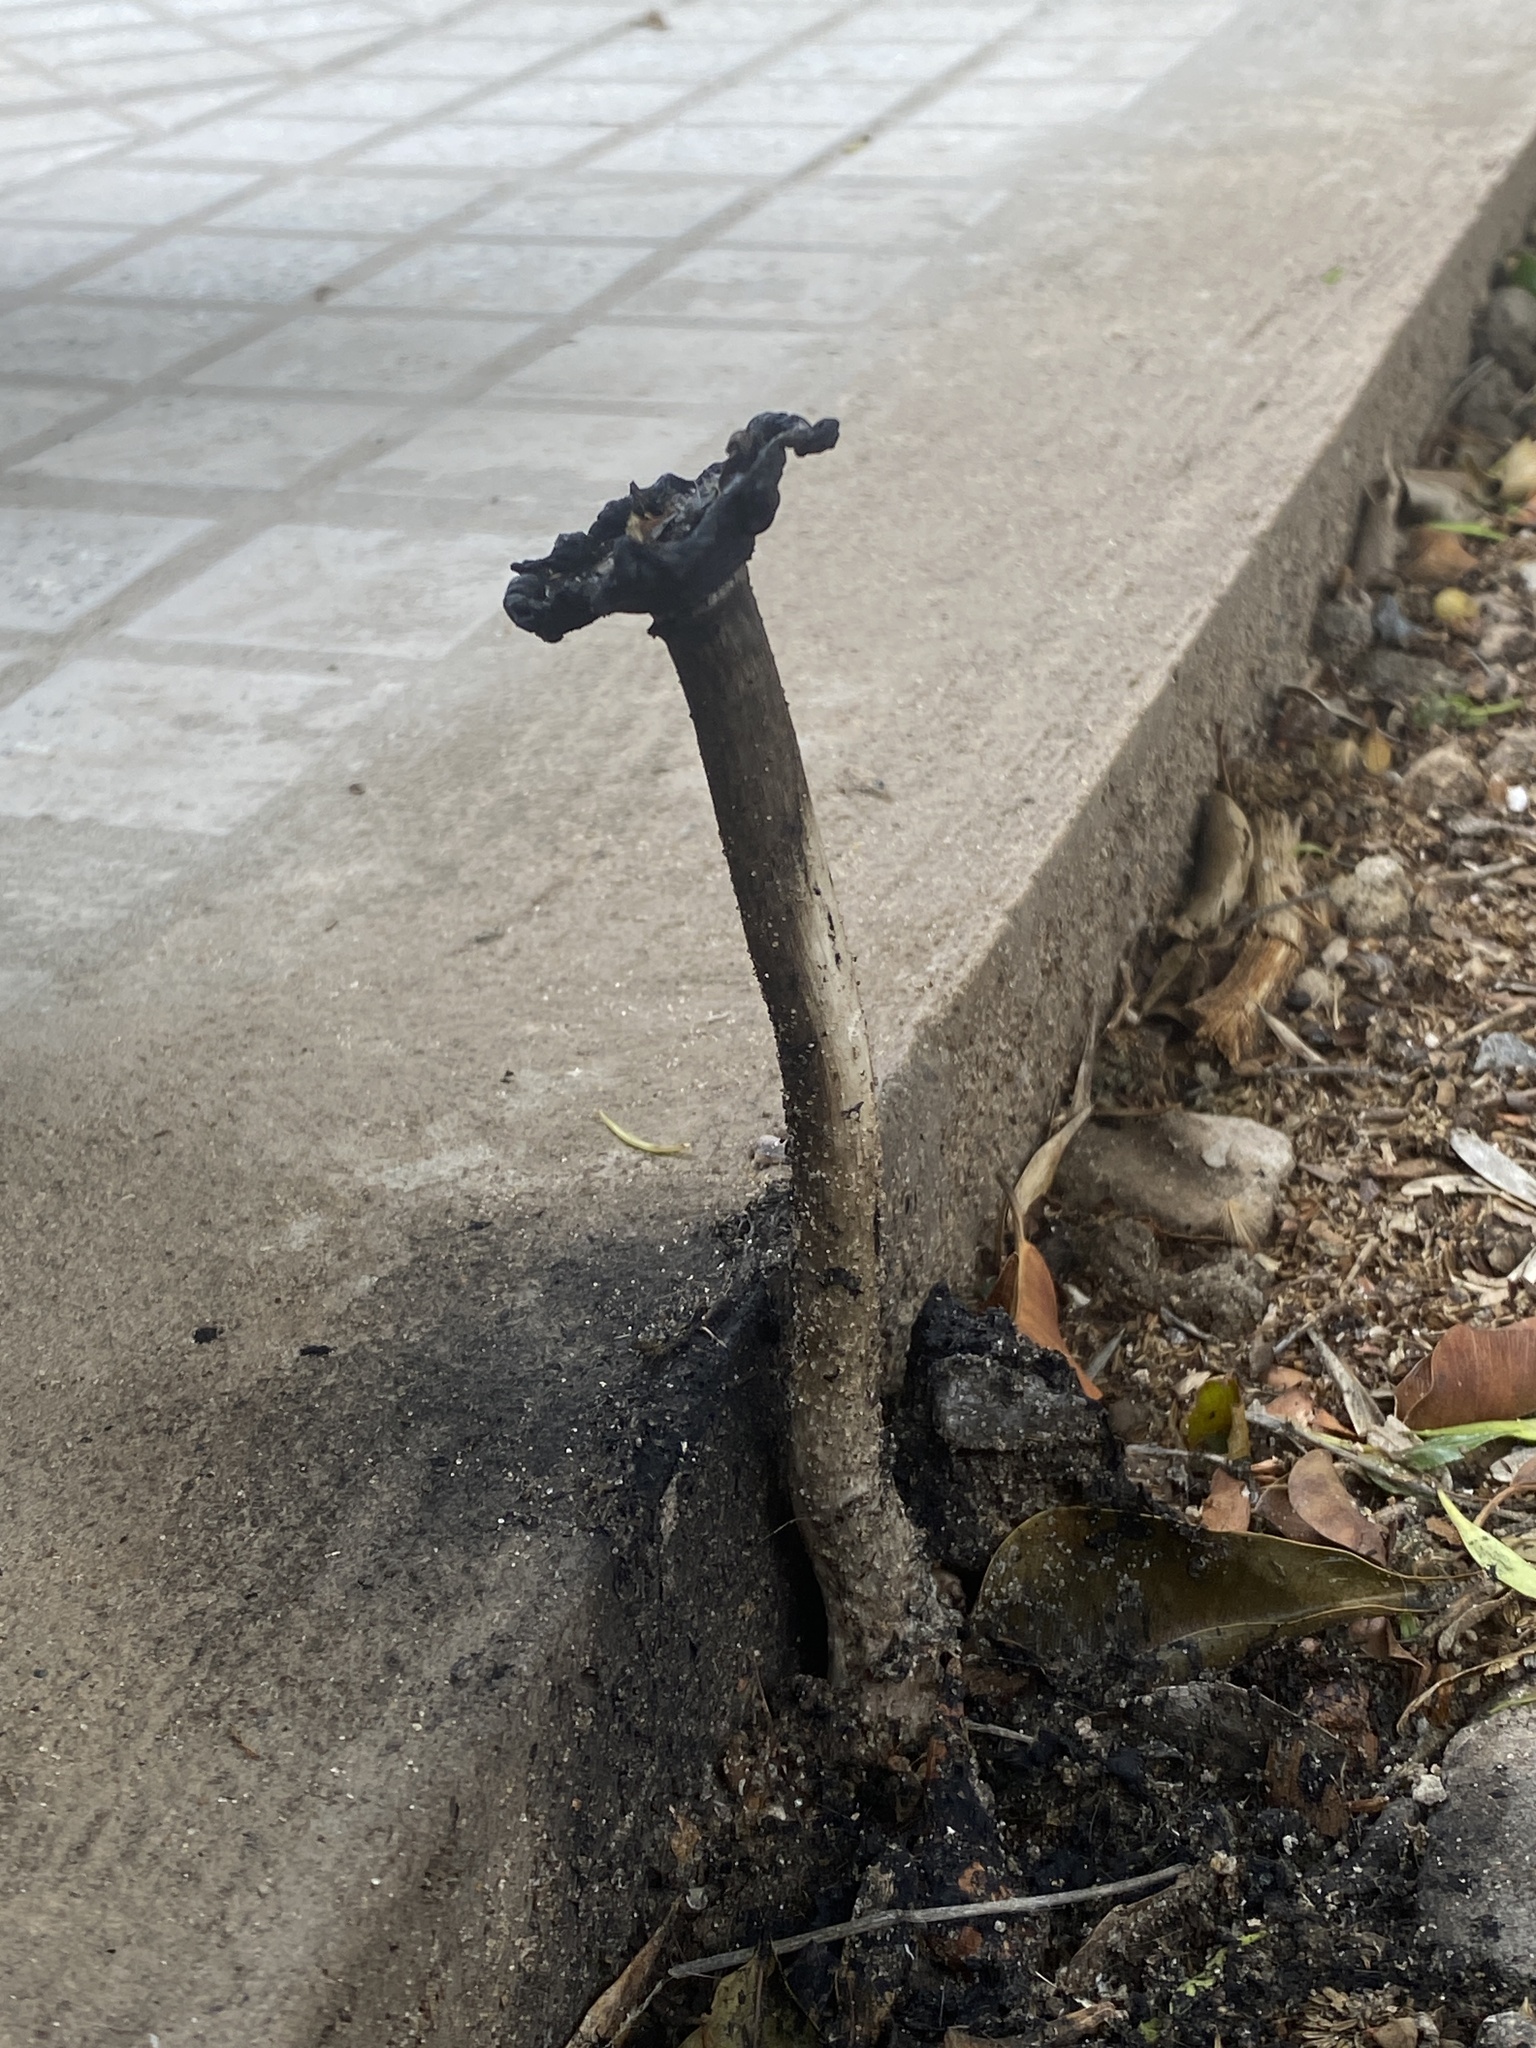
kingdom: Fungi
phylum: Basidiomycota
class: Agaricomycetes
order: Agaricales
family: Agaricaceae
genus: Coprinus
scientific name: Coprinus comatus
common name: Lawyer's wig
